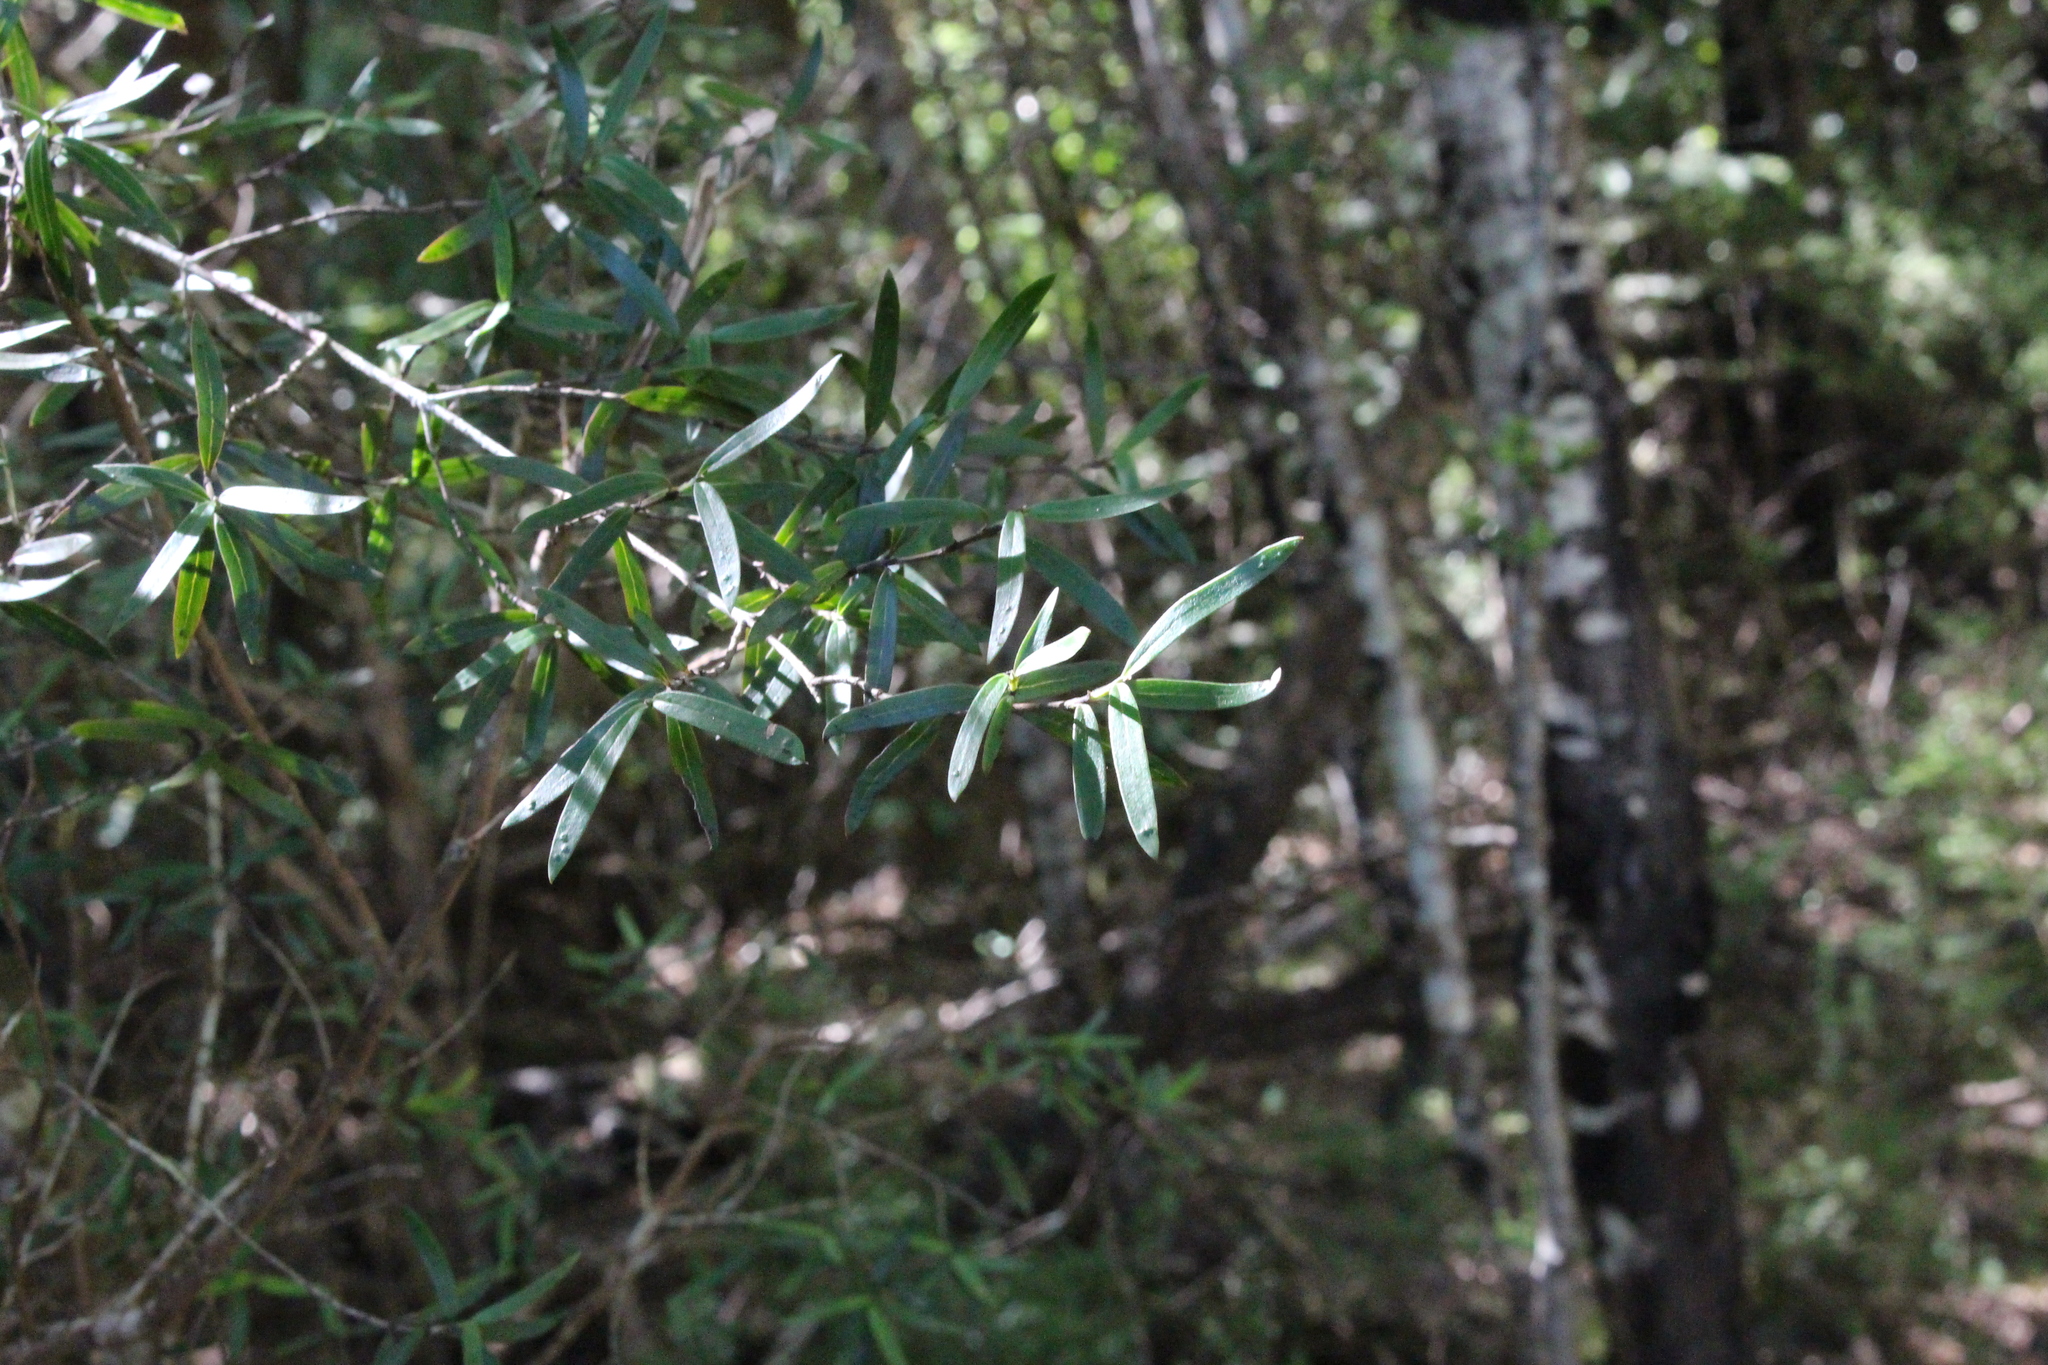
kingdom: Plantae
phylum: Tracheophyta
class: Magnoliopsida
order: Gentianales
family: Rubiaceae
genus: Coprosma
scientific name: Coprosma linariifolia
